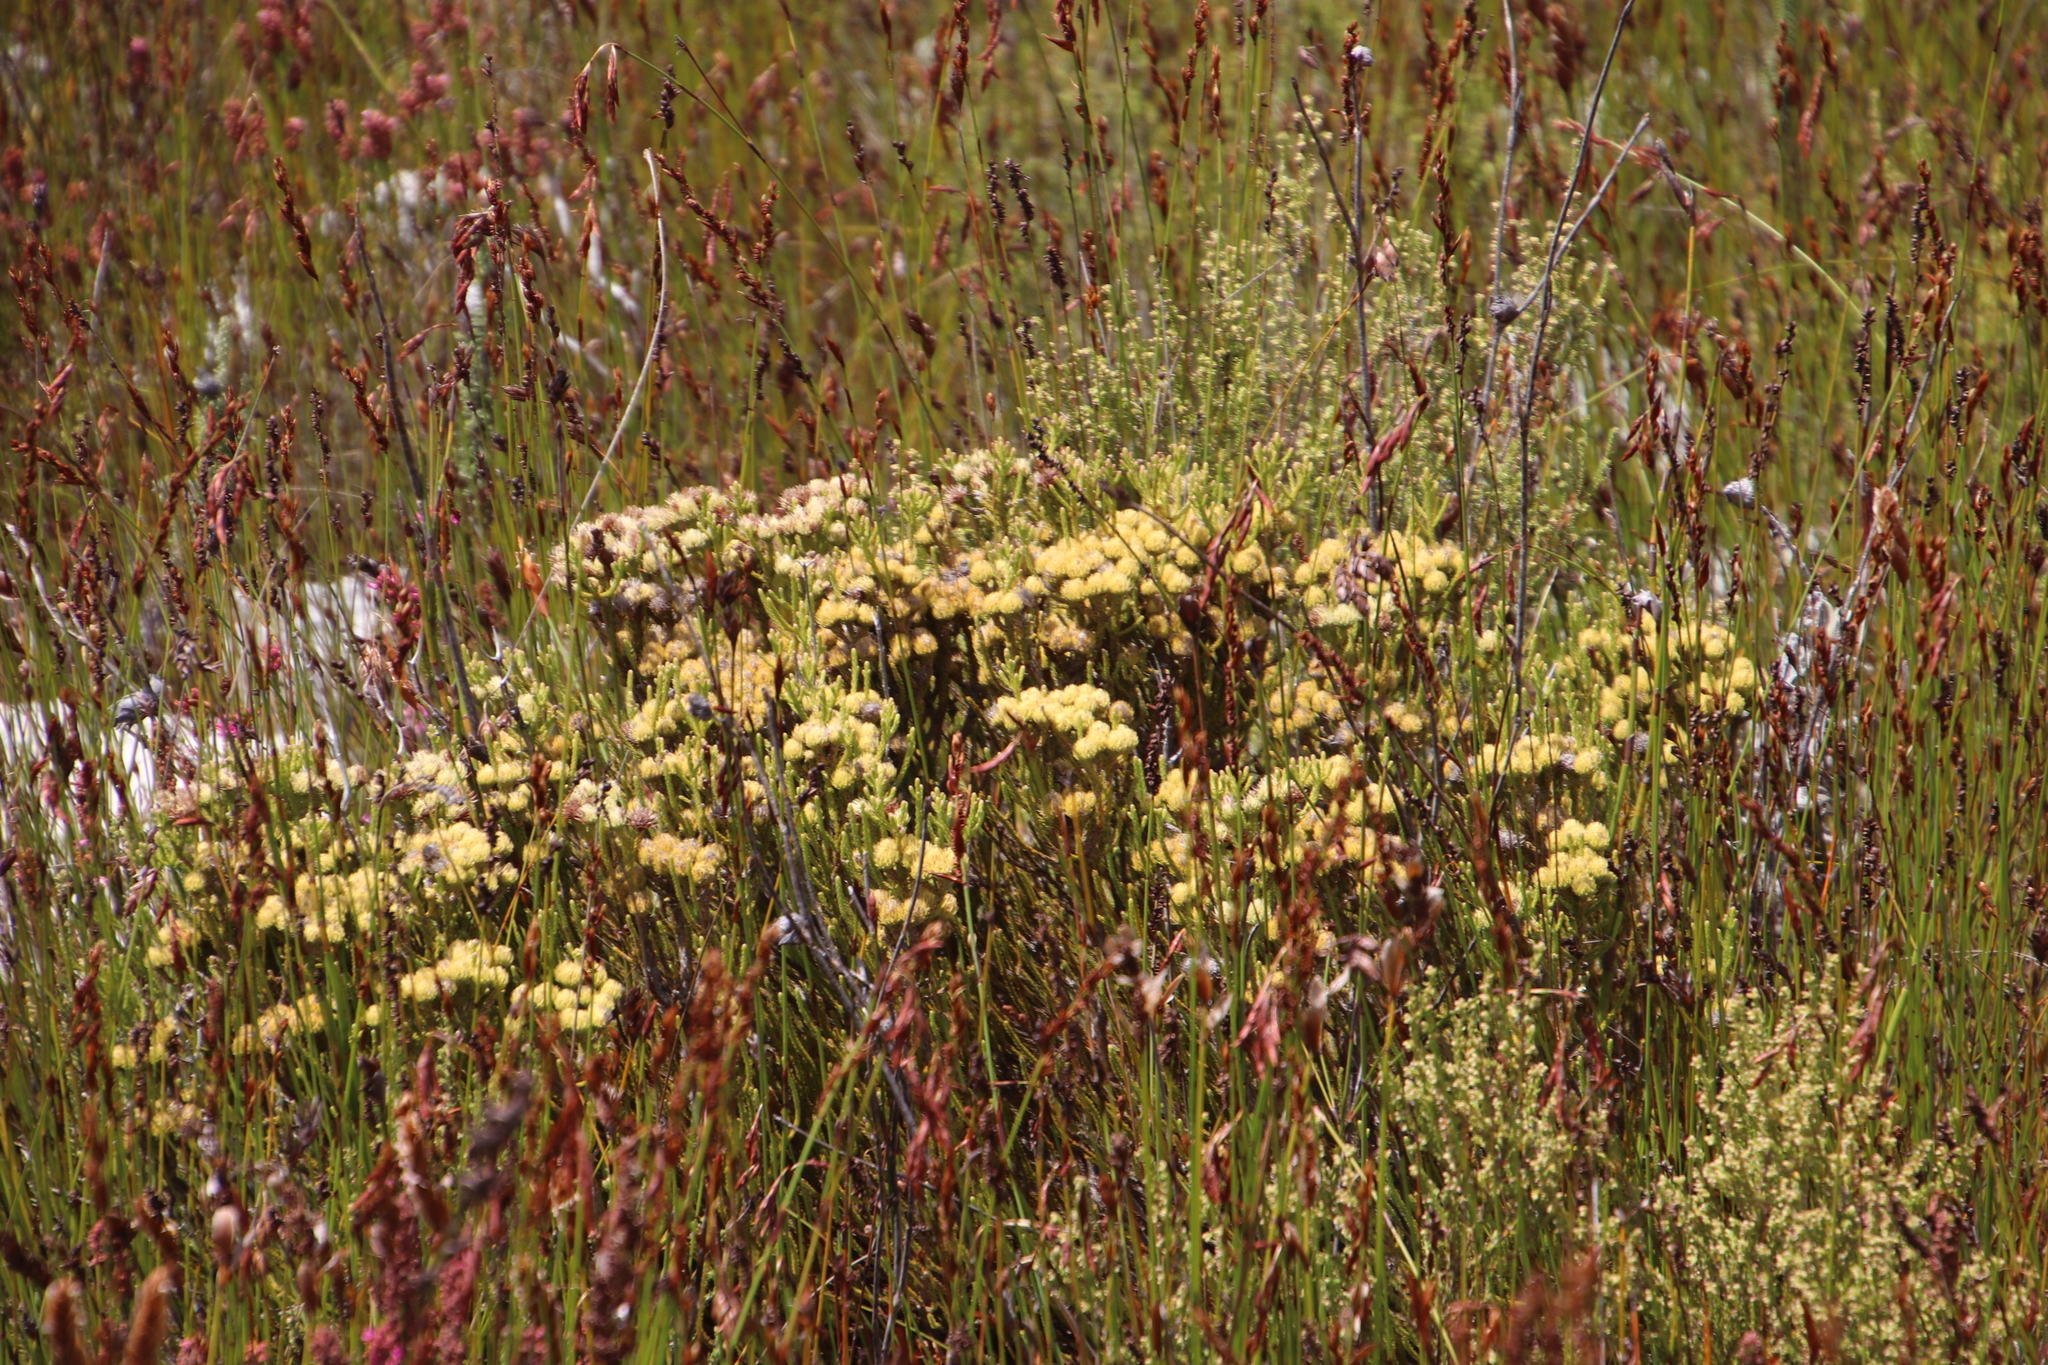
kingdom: Plantae
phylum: Tracheophyta
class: Magnoliopsida
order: Bruniales
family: Bruniaceae
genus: Brunia
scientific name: Brunia paleacea
